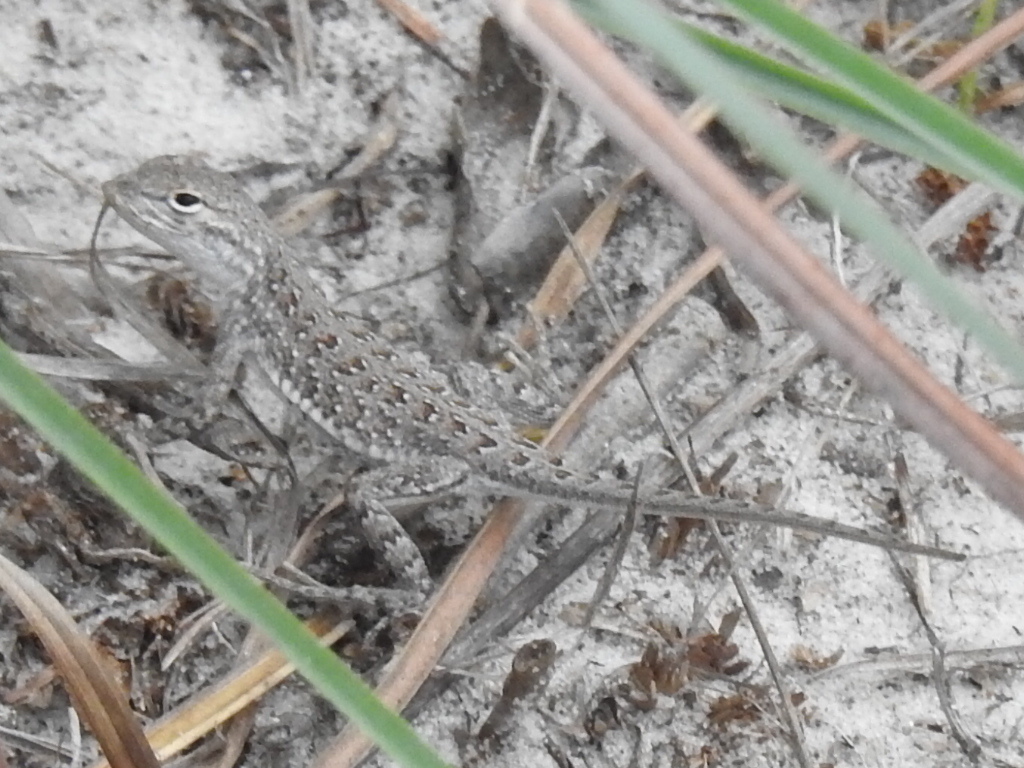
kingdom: Animalia
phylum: Chordata
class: Squamata
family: Phrynosomatidae
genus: Holbrookia
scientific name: Holbrookia propinqua
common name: Keeled earless lizard
